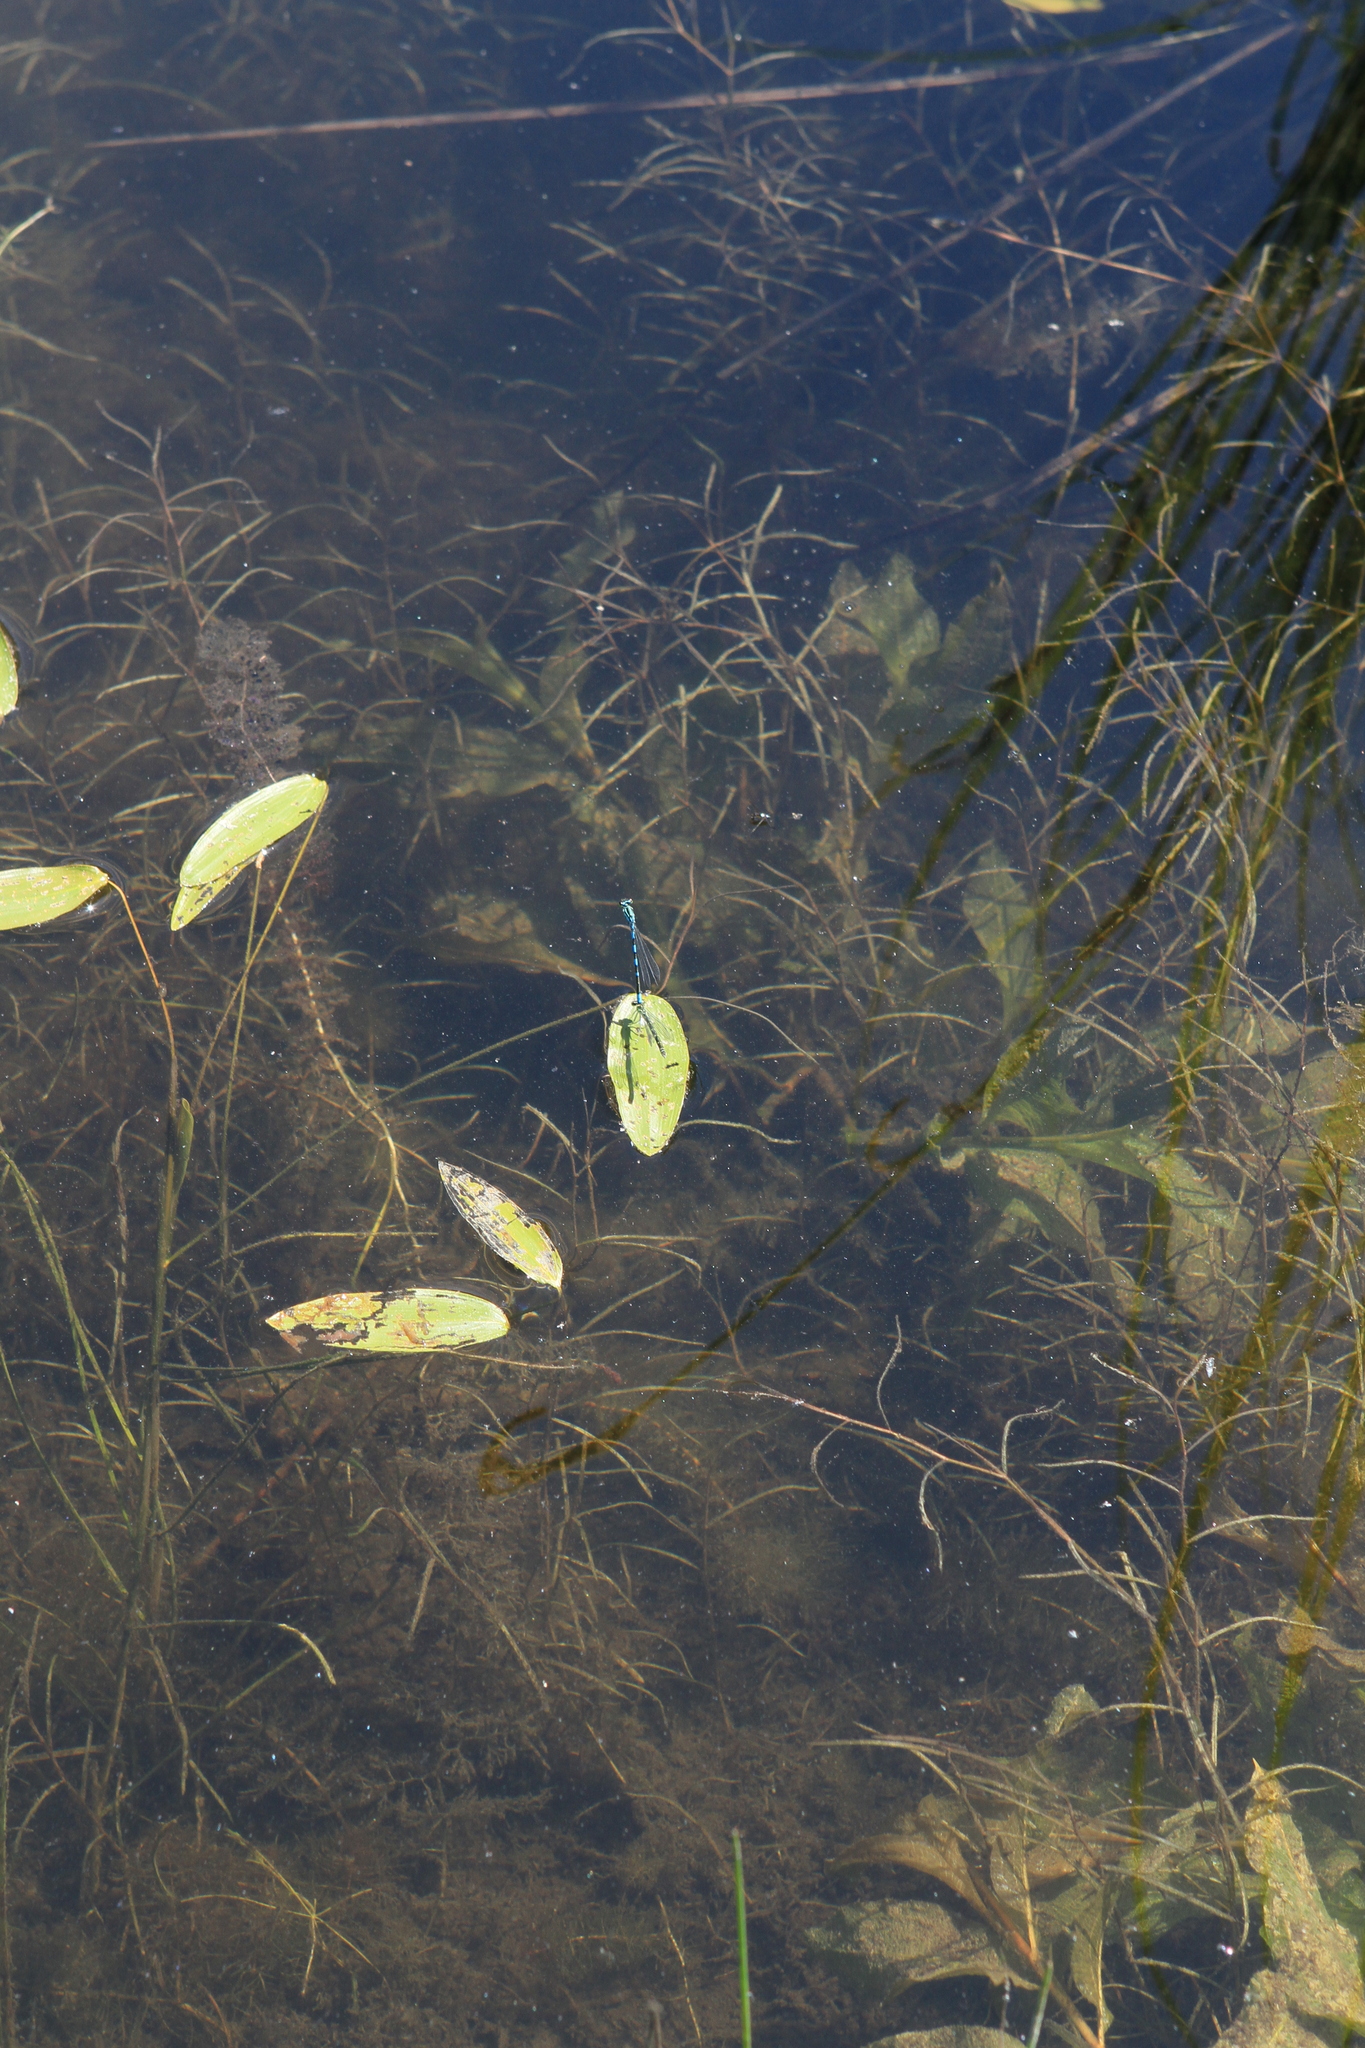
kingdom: Plantae
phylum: Tracheophyta
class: Liliopsida
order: Alismatales
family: Potamogetonaceae
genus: Potamogeton
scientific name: Potamogeton natans
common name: Broad-leaved pondweed
